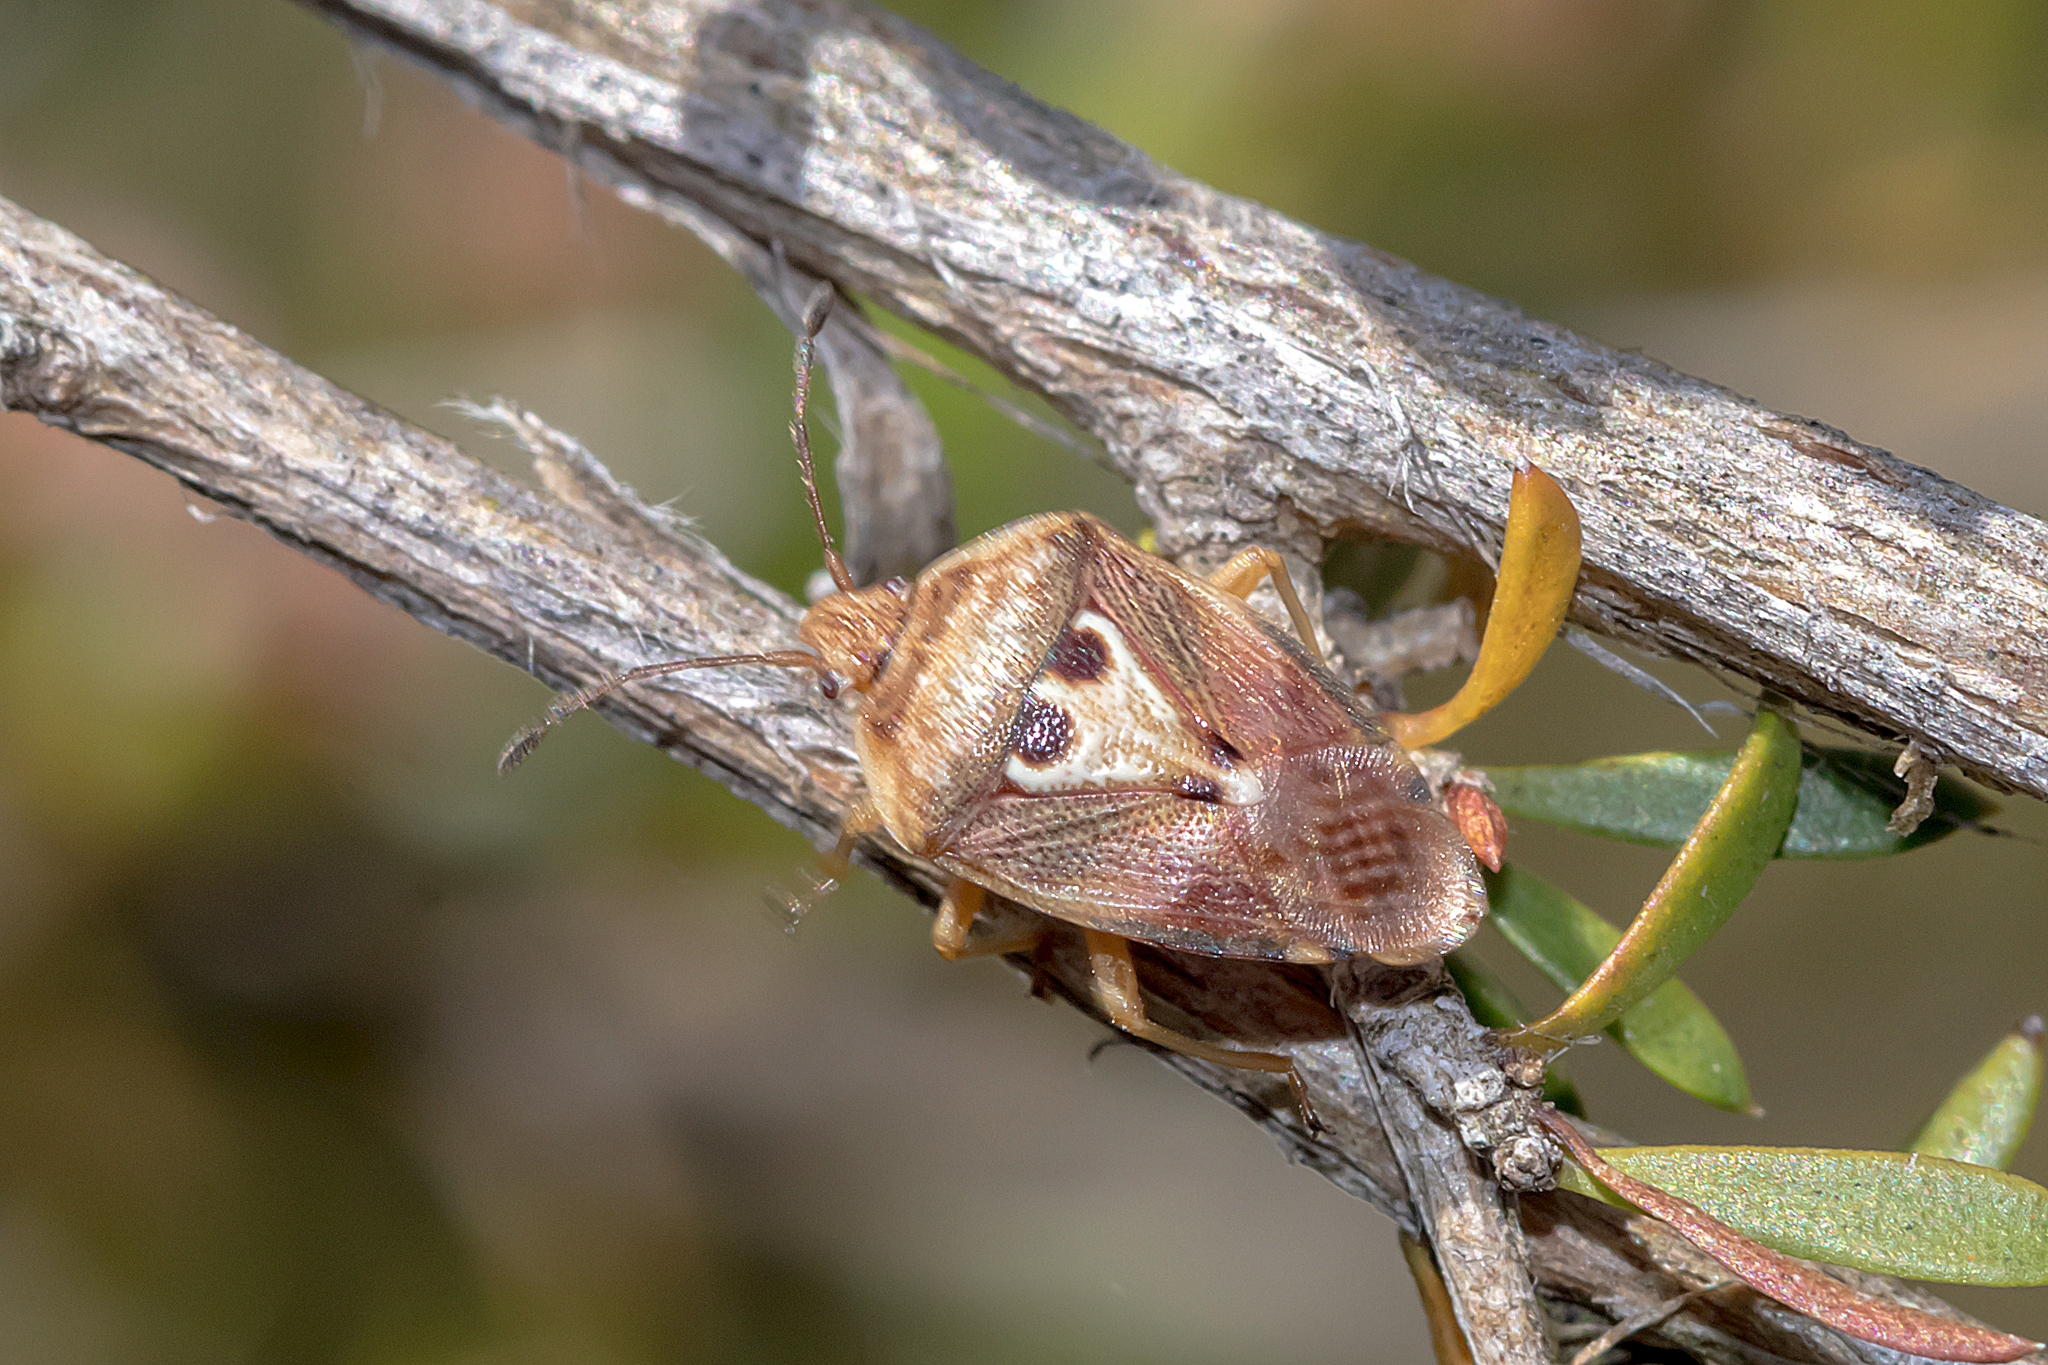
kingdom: Animalia
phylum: Arthropoda
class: Insecta
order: Hemiptera
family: Acanthosomatidae
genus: Eupolemus
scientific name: Eupolemus angularis
